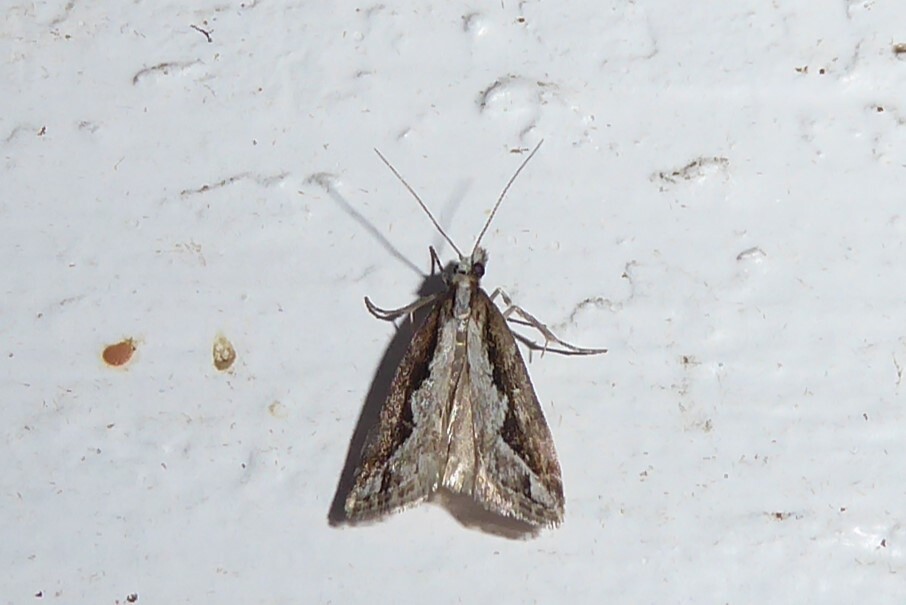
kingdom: Animalia
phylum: Arthropoda
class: Insecta
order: Lepidoptera
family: Crambidae
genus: Eudonia
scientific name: Eudonia steropaea
